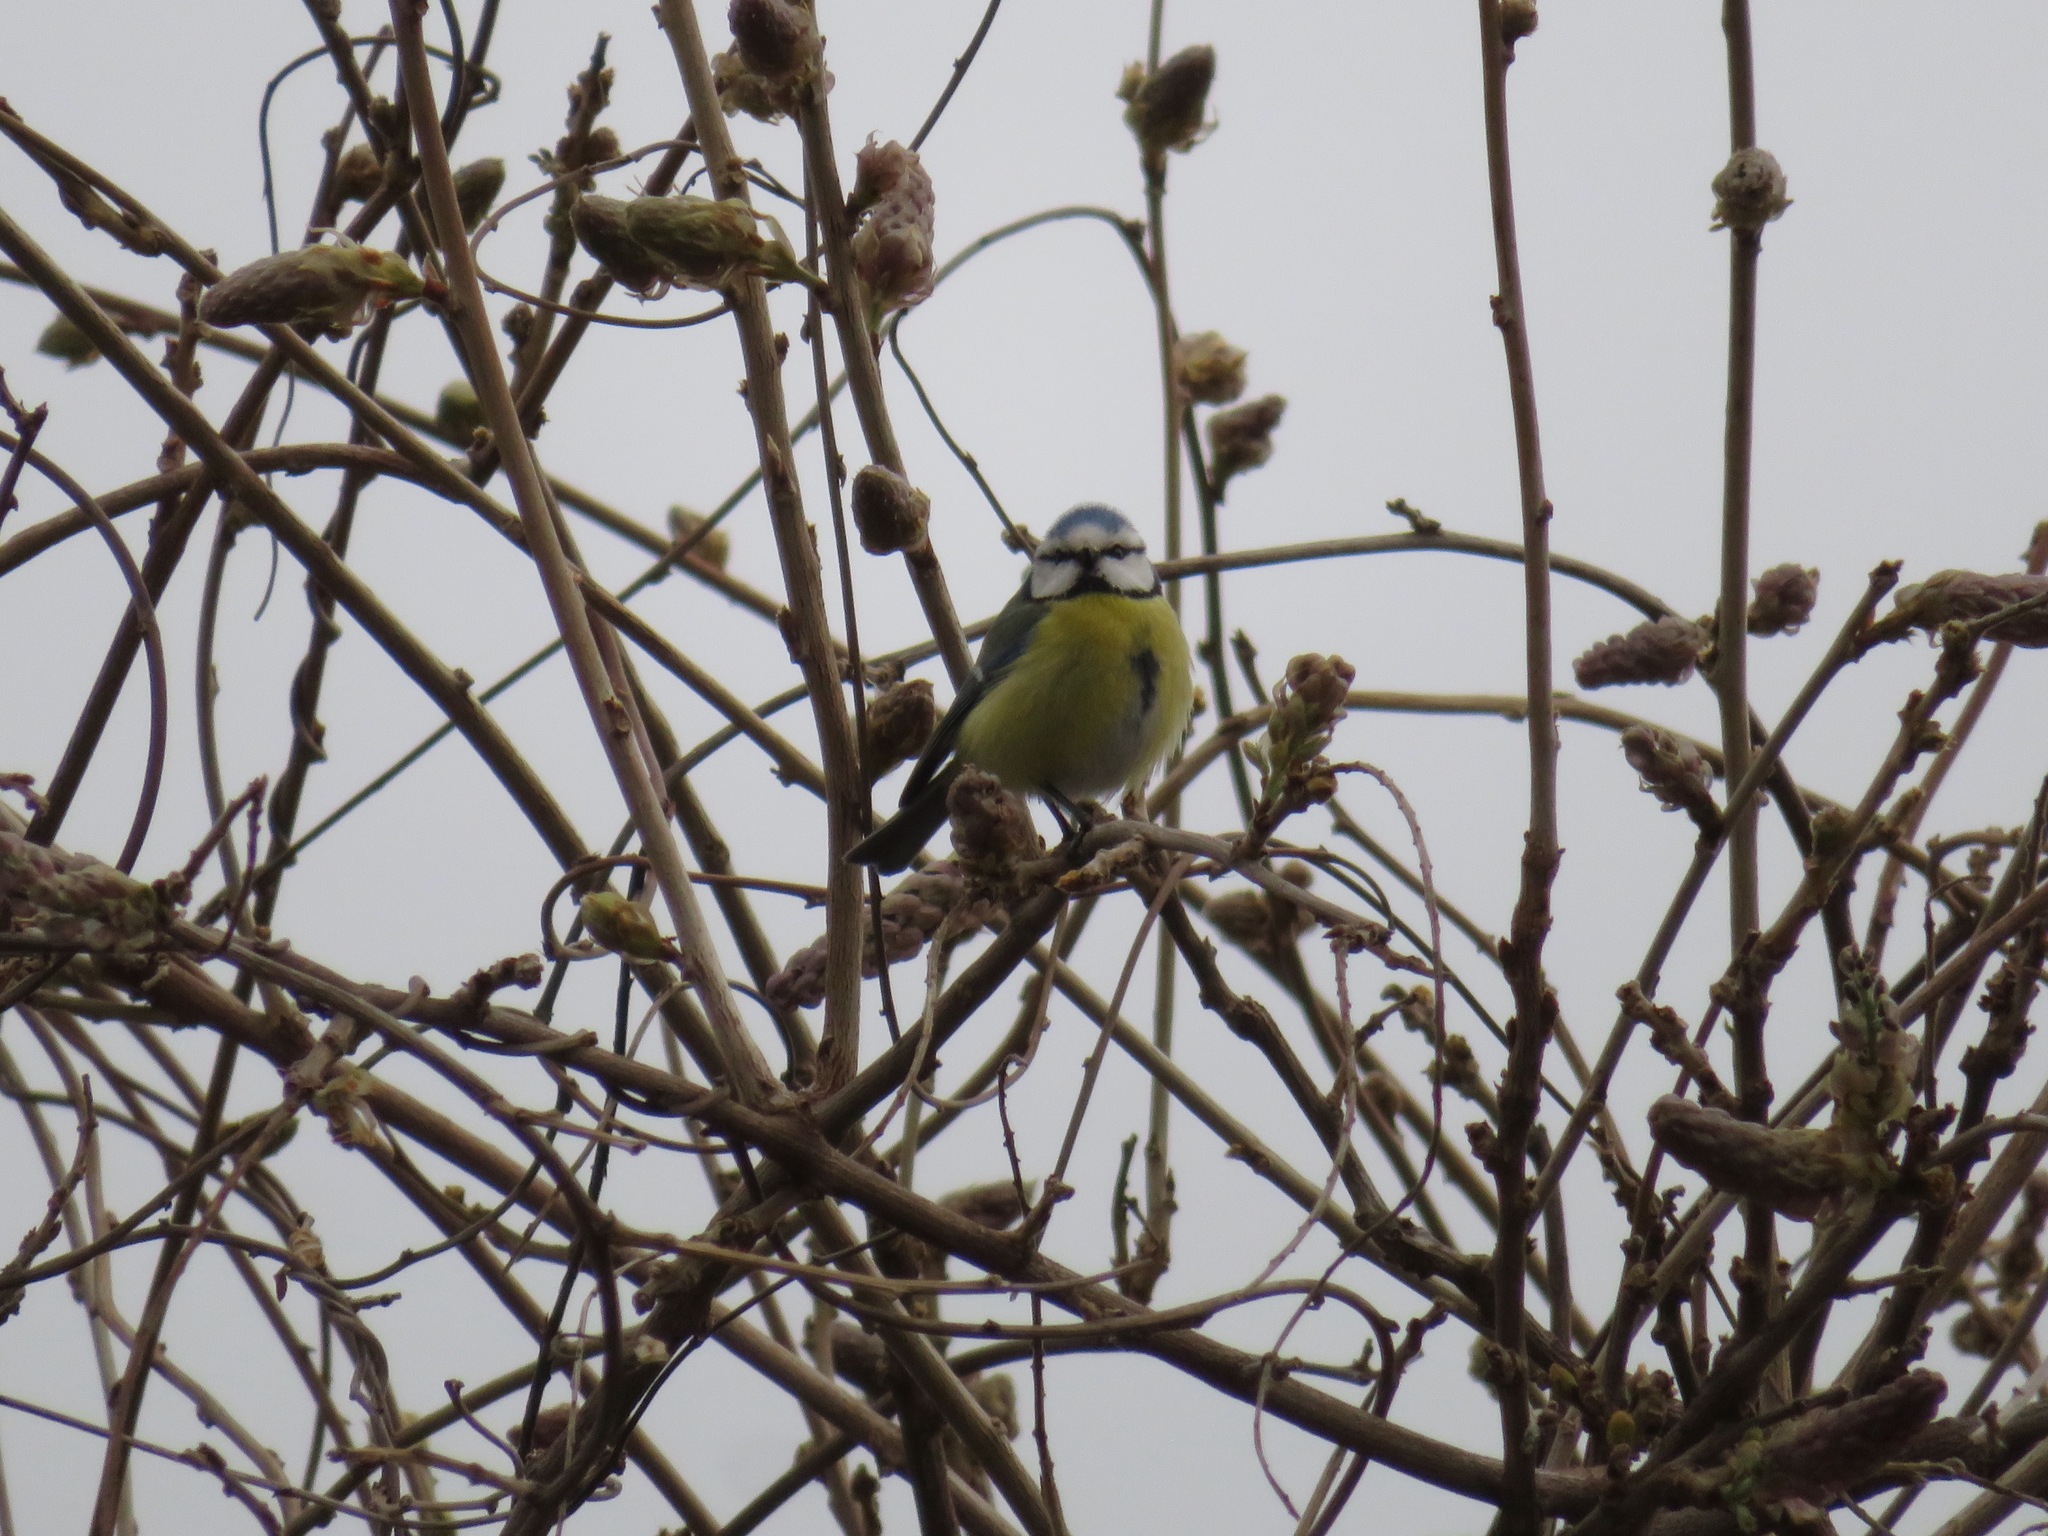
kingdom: Animalia
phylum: Chordata
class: Aves
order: Passeriformes
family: Paridae
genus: Cyanistes
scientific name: Cyanistes caeruleus
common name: Eurasian blue tit
